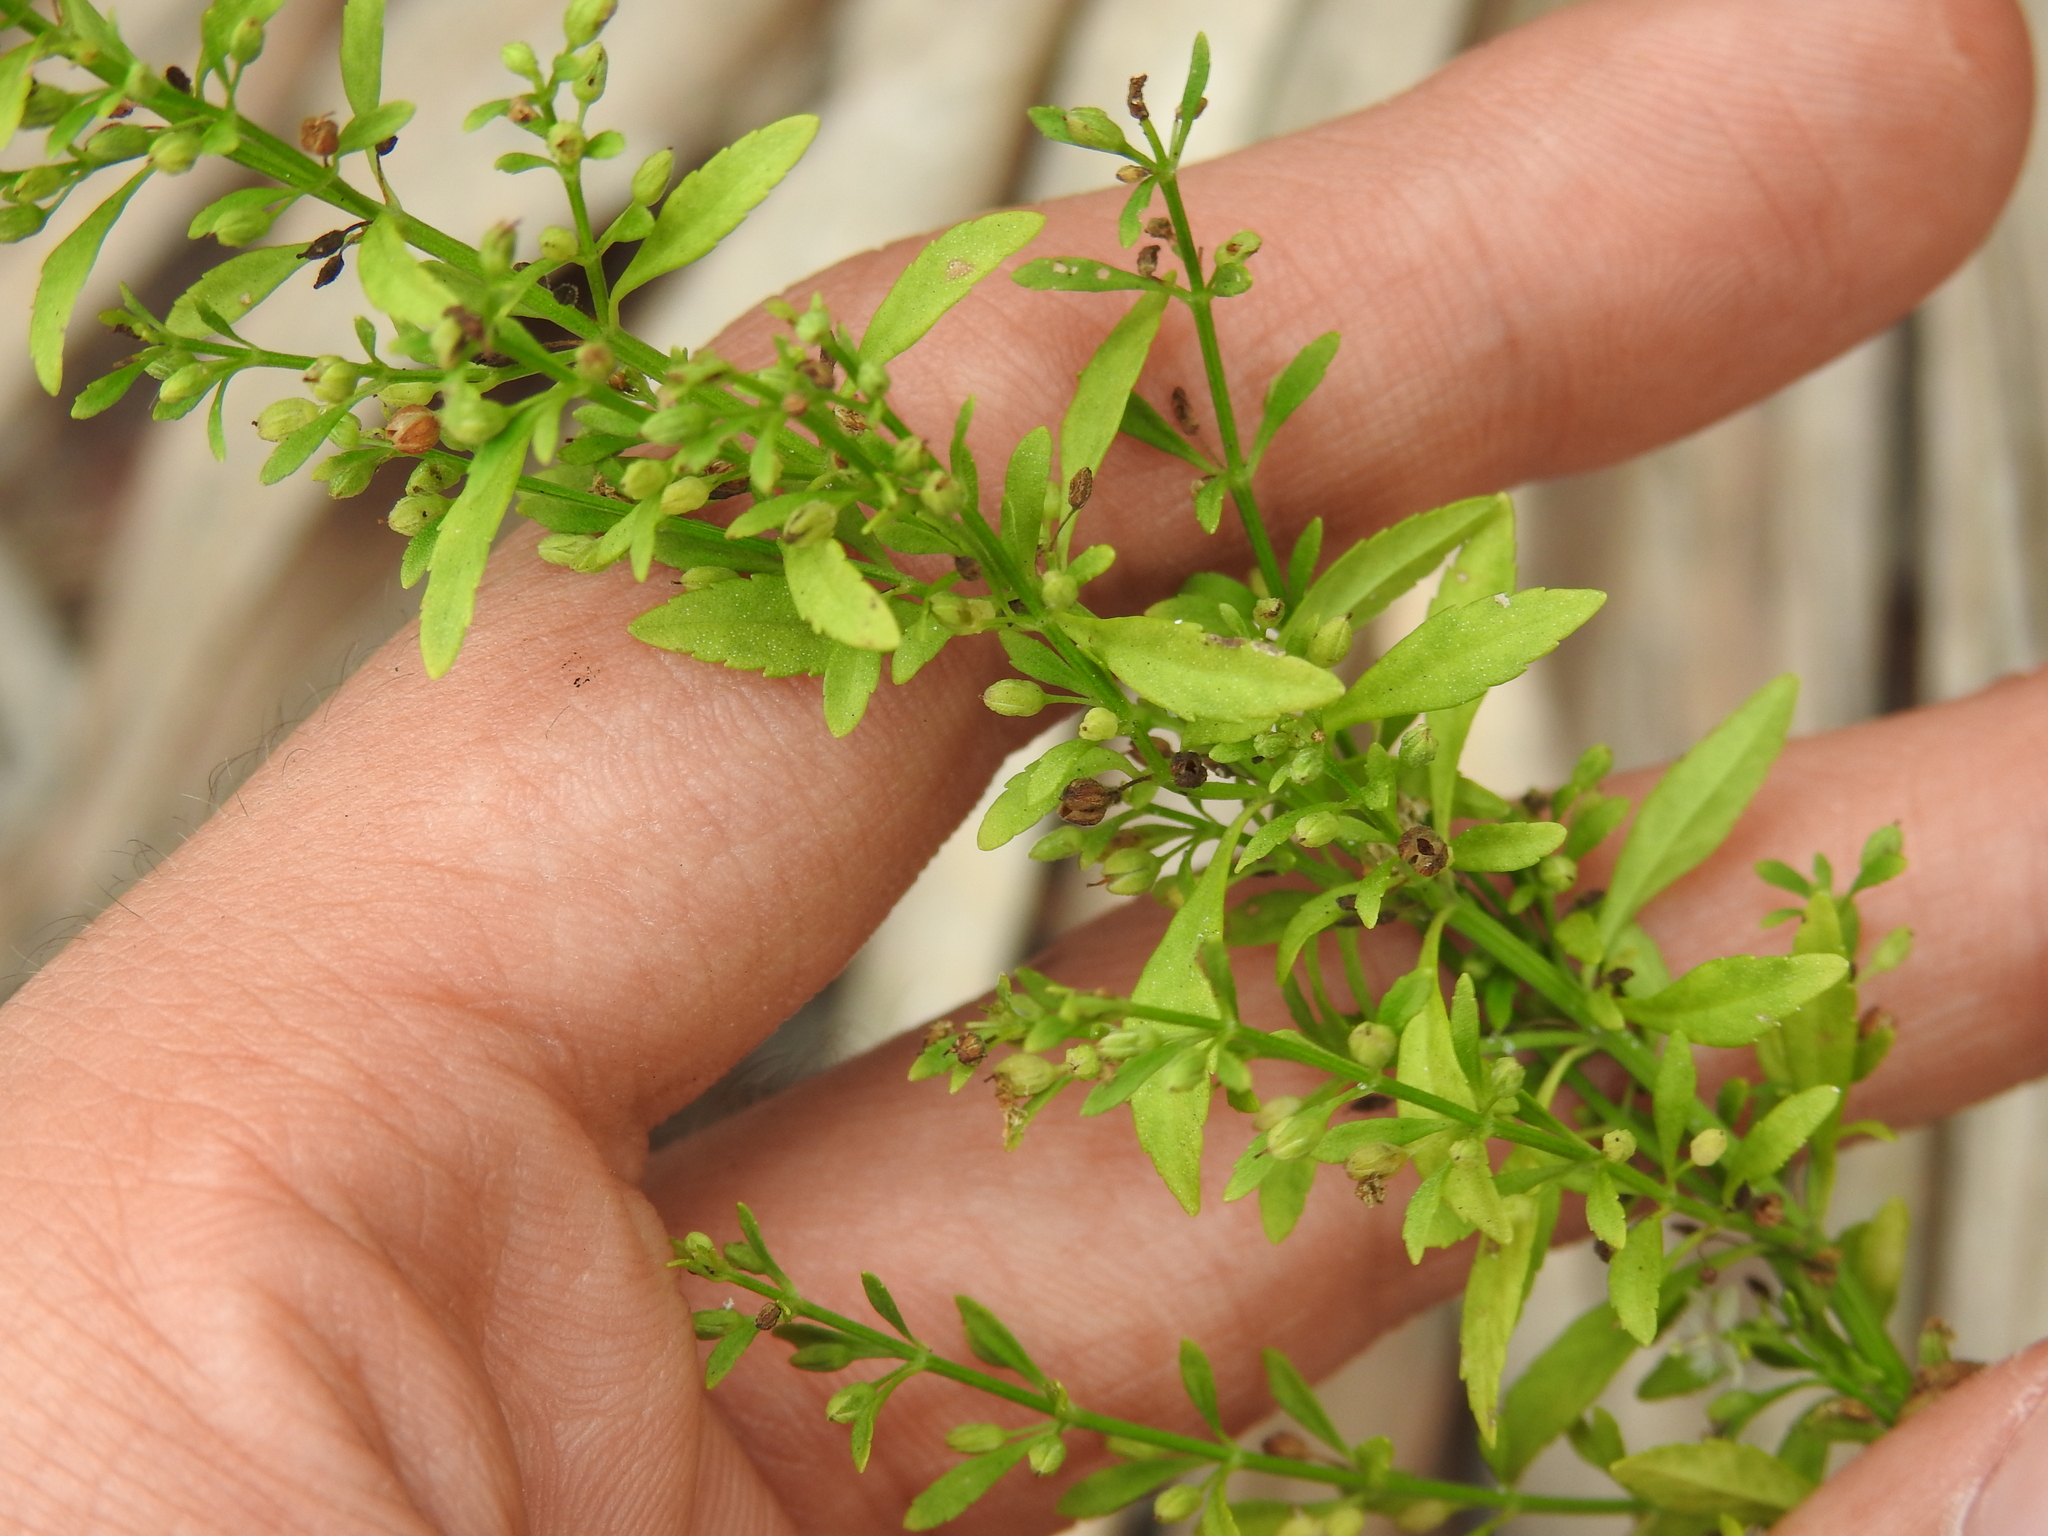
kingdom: Plantae
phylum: Tracheophyta
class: Magnoliopsida
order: Lamiales
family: Plantaginaceae
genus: Scoparia
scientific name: Scoparia dulcis
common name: Scoparia-weed
